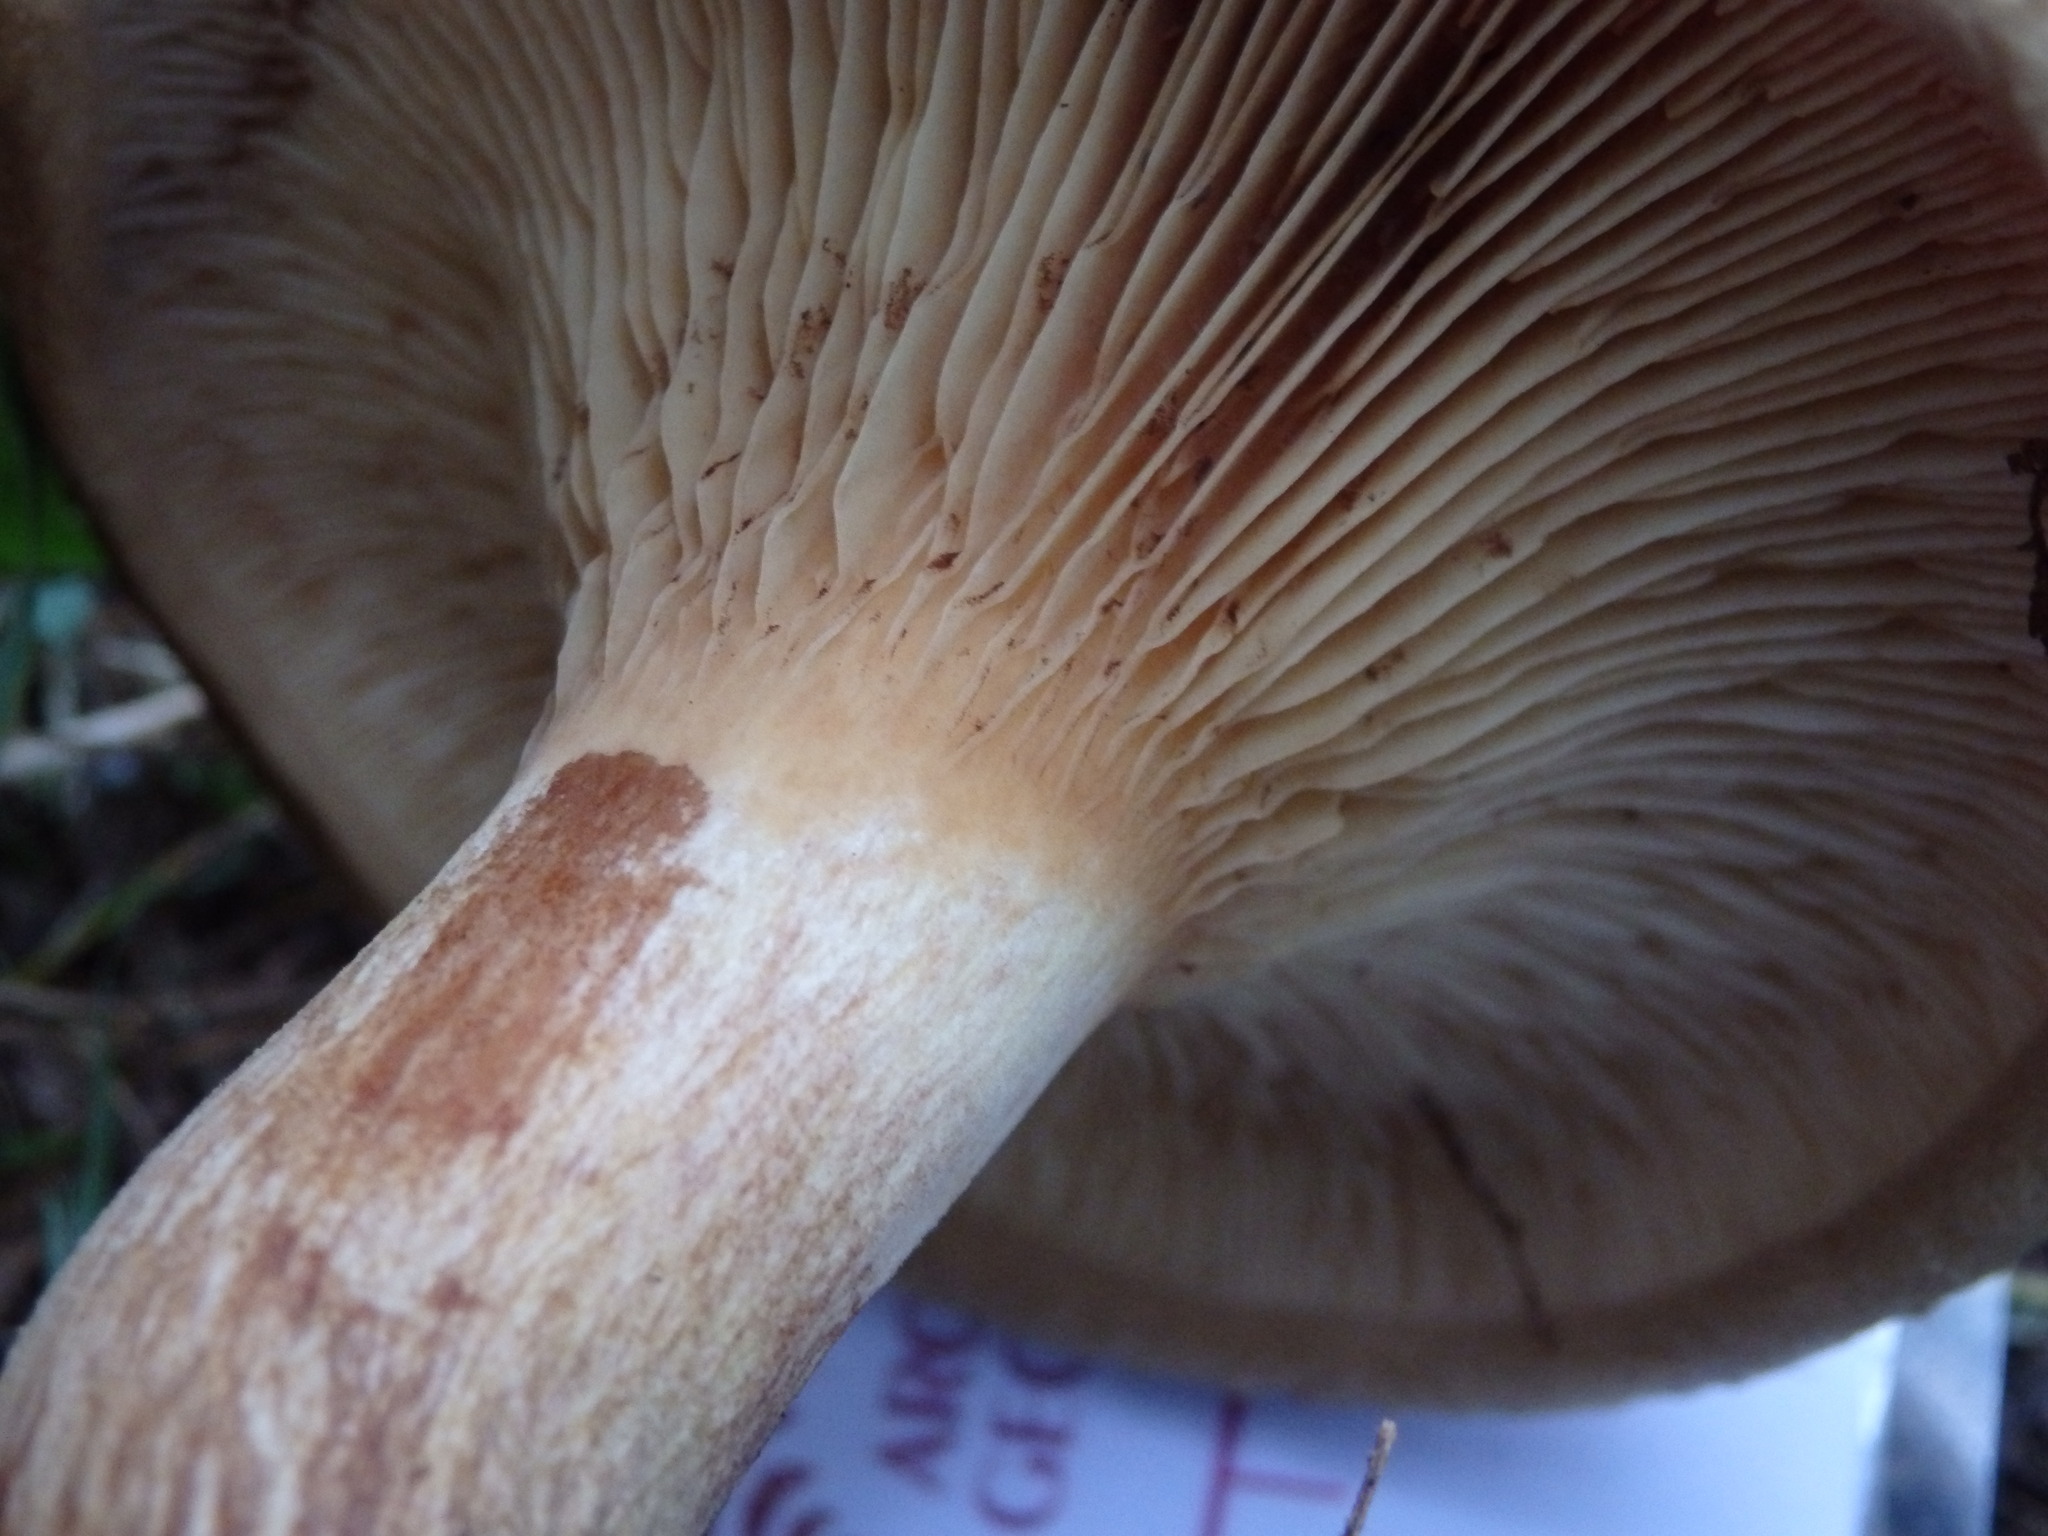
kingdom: Fungi
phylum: Basidiomycota
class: Agaricomycetes
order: Boletales
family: Paxillaceae
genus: Paxillus
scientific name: Paxillus involutus
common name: Brown roll rim
